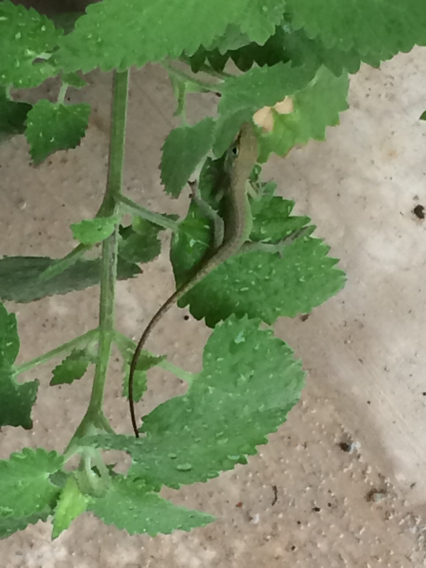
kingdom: Animalia
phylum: Chordata
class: Squamata
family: Dactyloidae
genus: Anolis
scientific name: Anolis carolinensis
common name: Green anole
